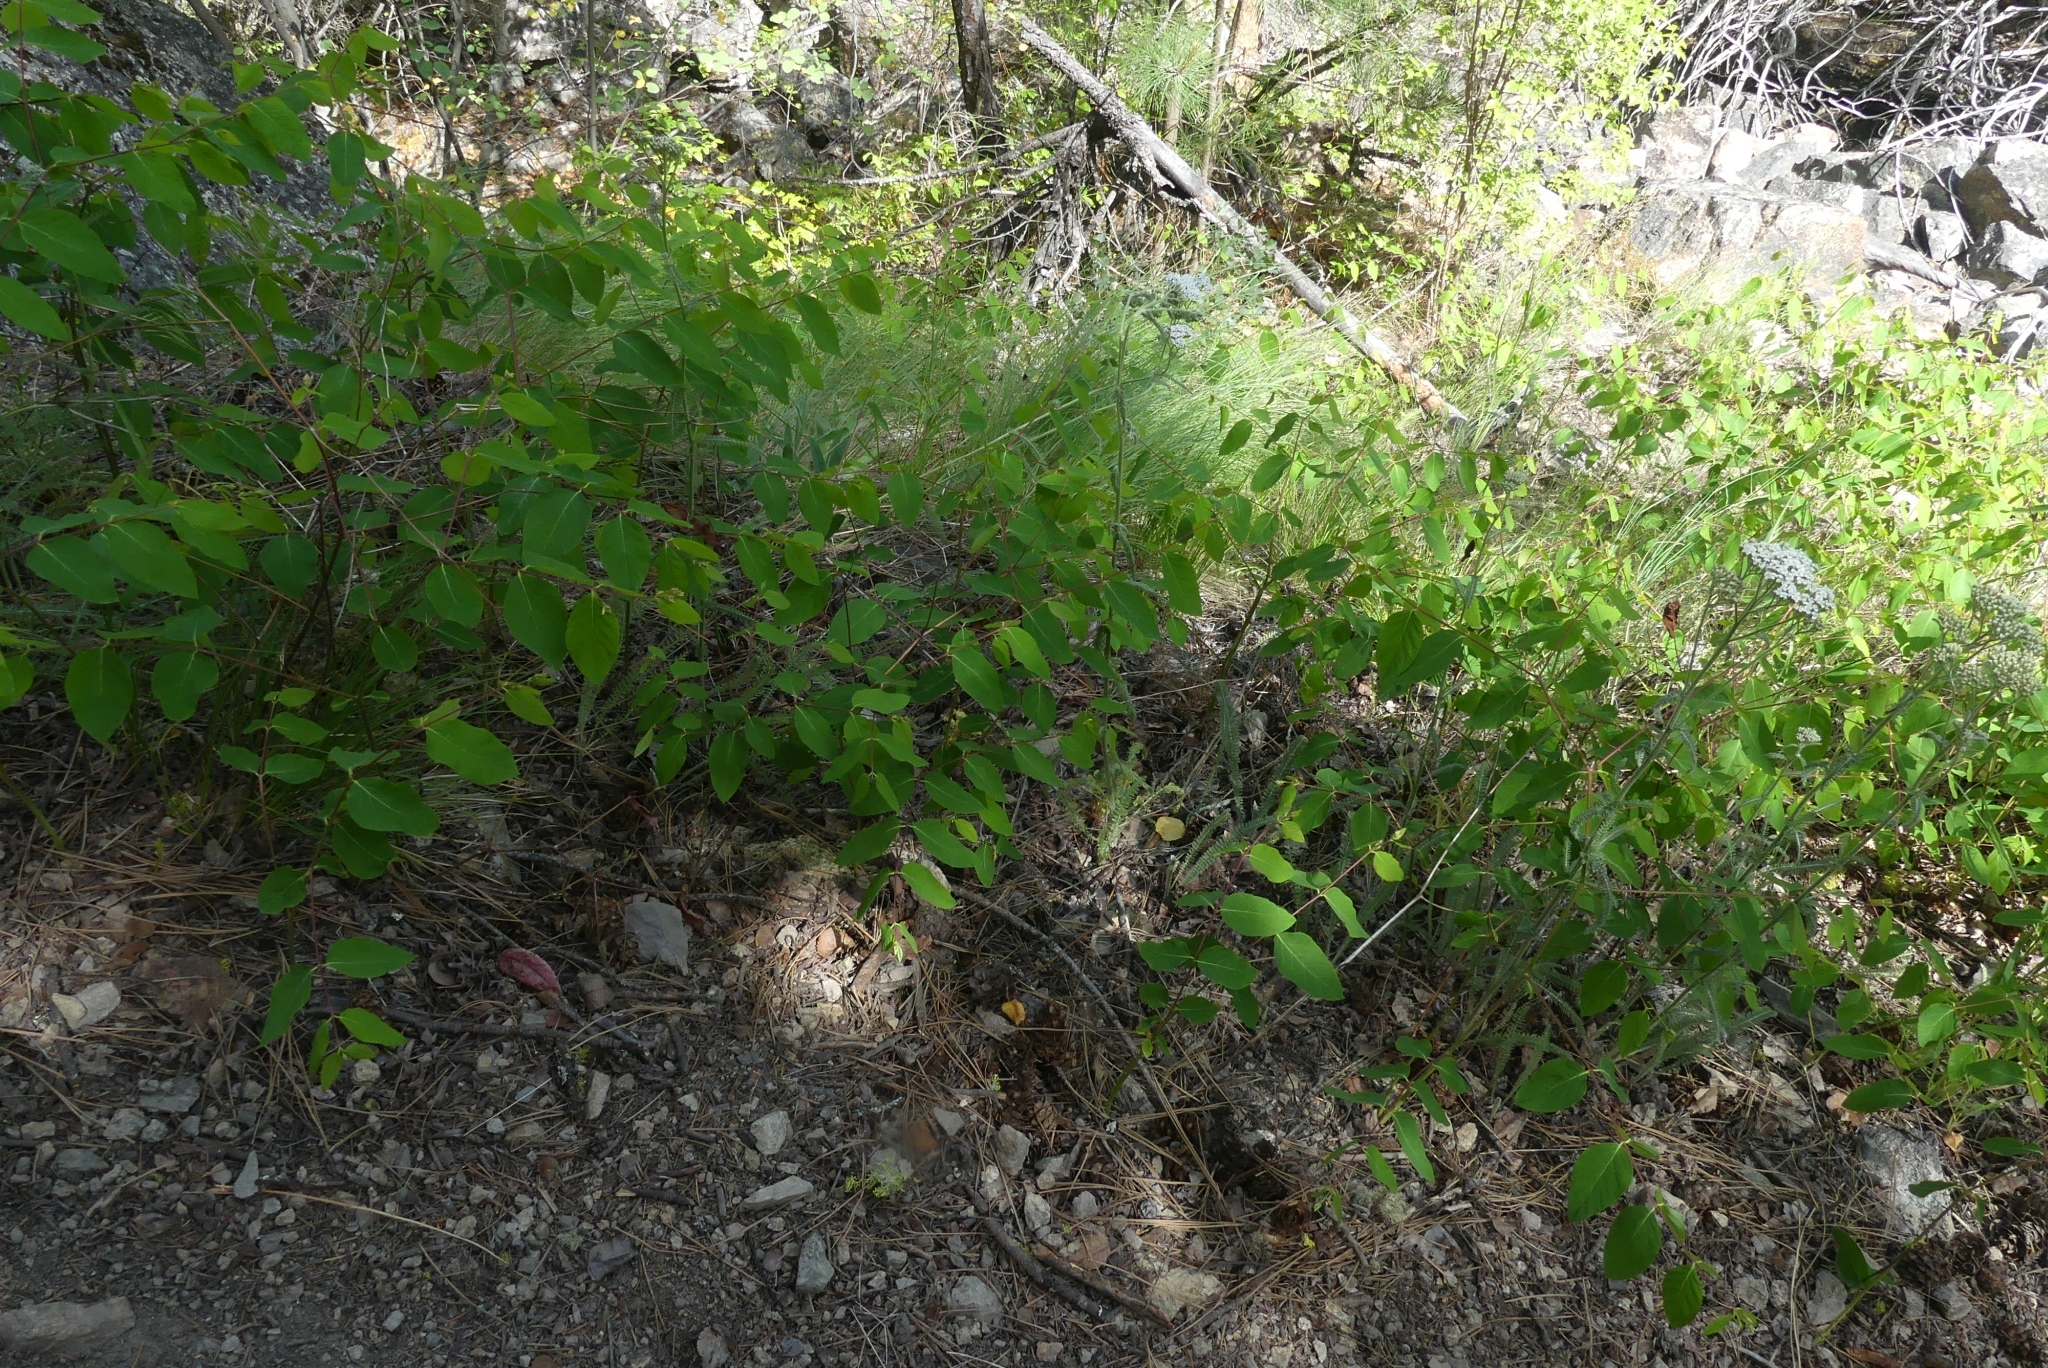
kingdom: Plantae
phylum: Tracheophyta
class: Magnoliopsida
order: Gentianales
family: Apocynaceae
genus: Apocynum
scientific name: Apocynum androsaemifolium
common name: Spreading dogbane
